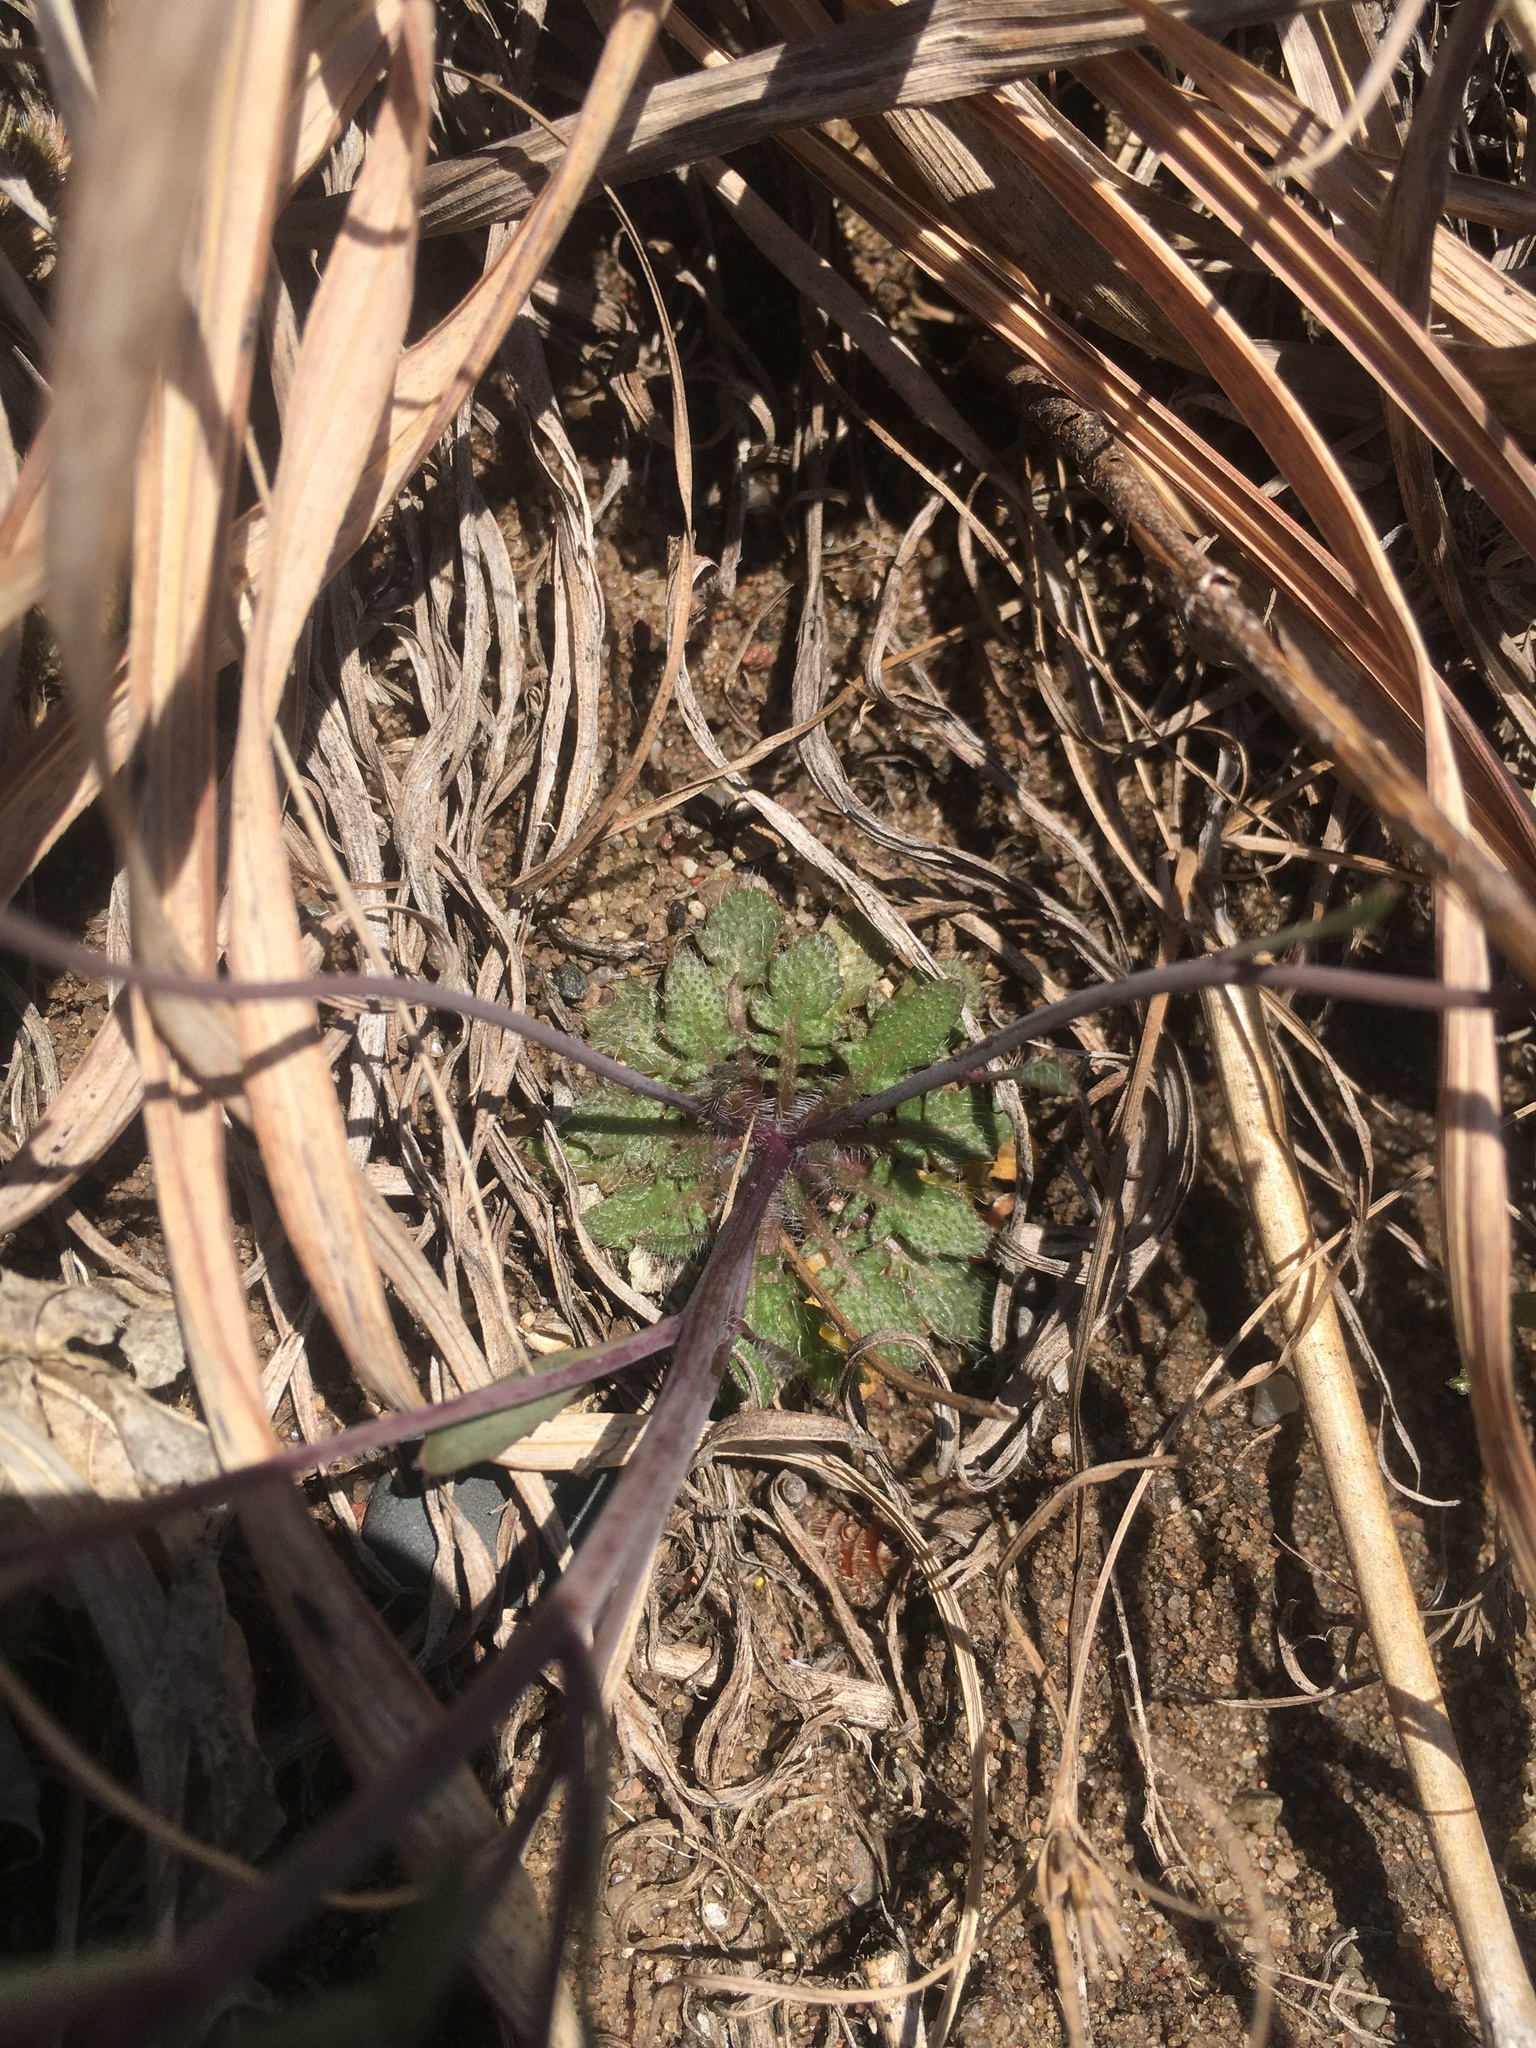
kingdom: Plantae
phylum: Tracheophyta
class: Magnoliopsida
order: Brassicales
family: Brassicaceae
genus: Arabidopsis
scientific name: Arabidopsis lyrata
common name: Lyrate rockcress
